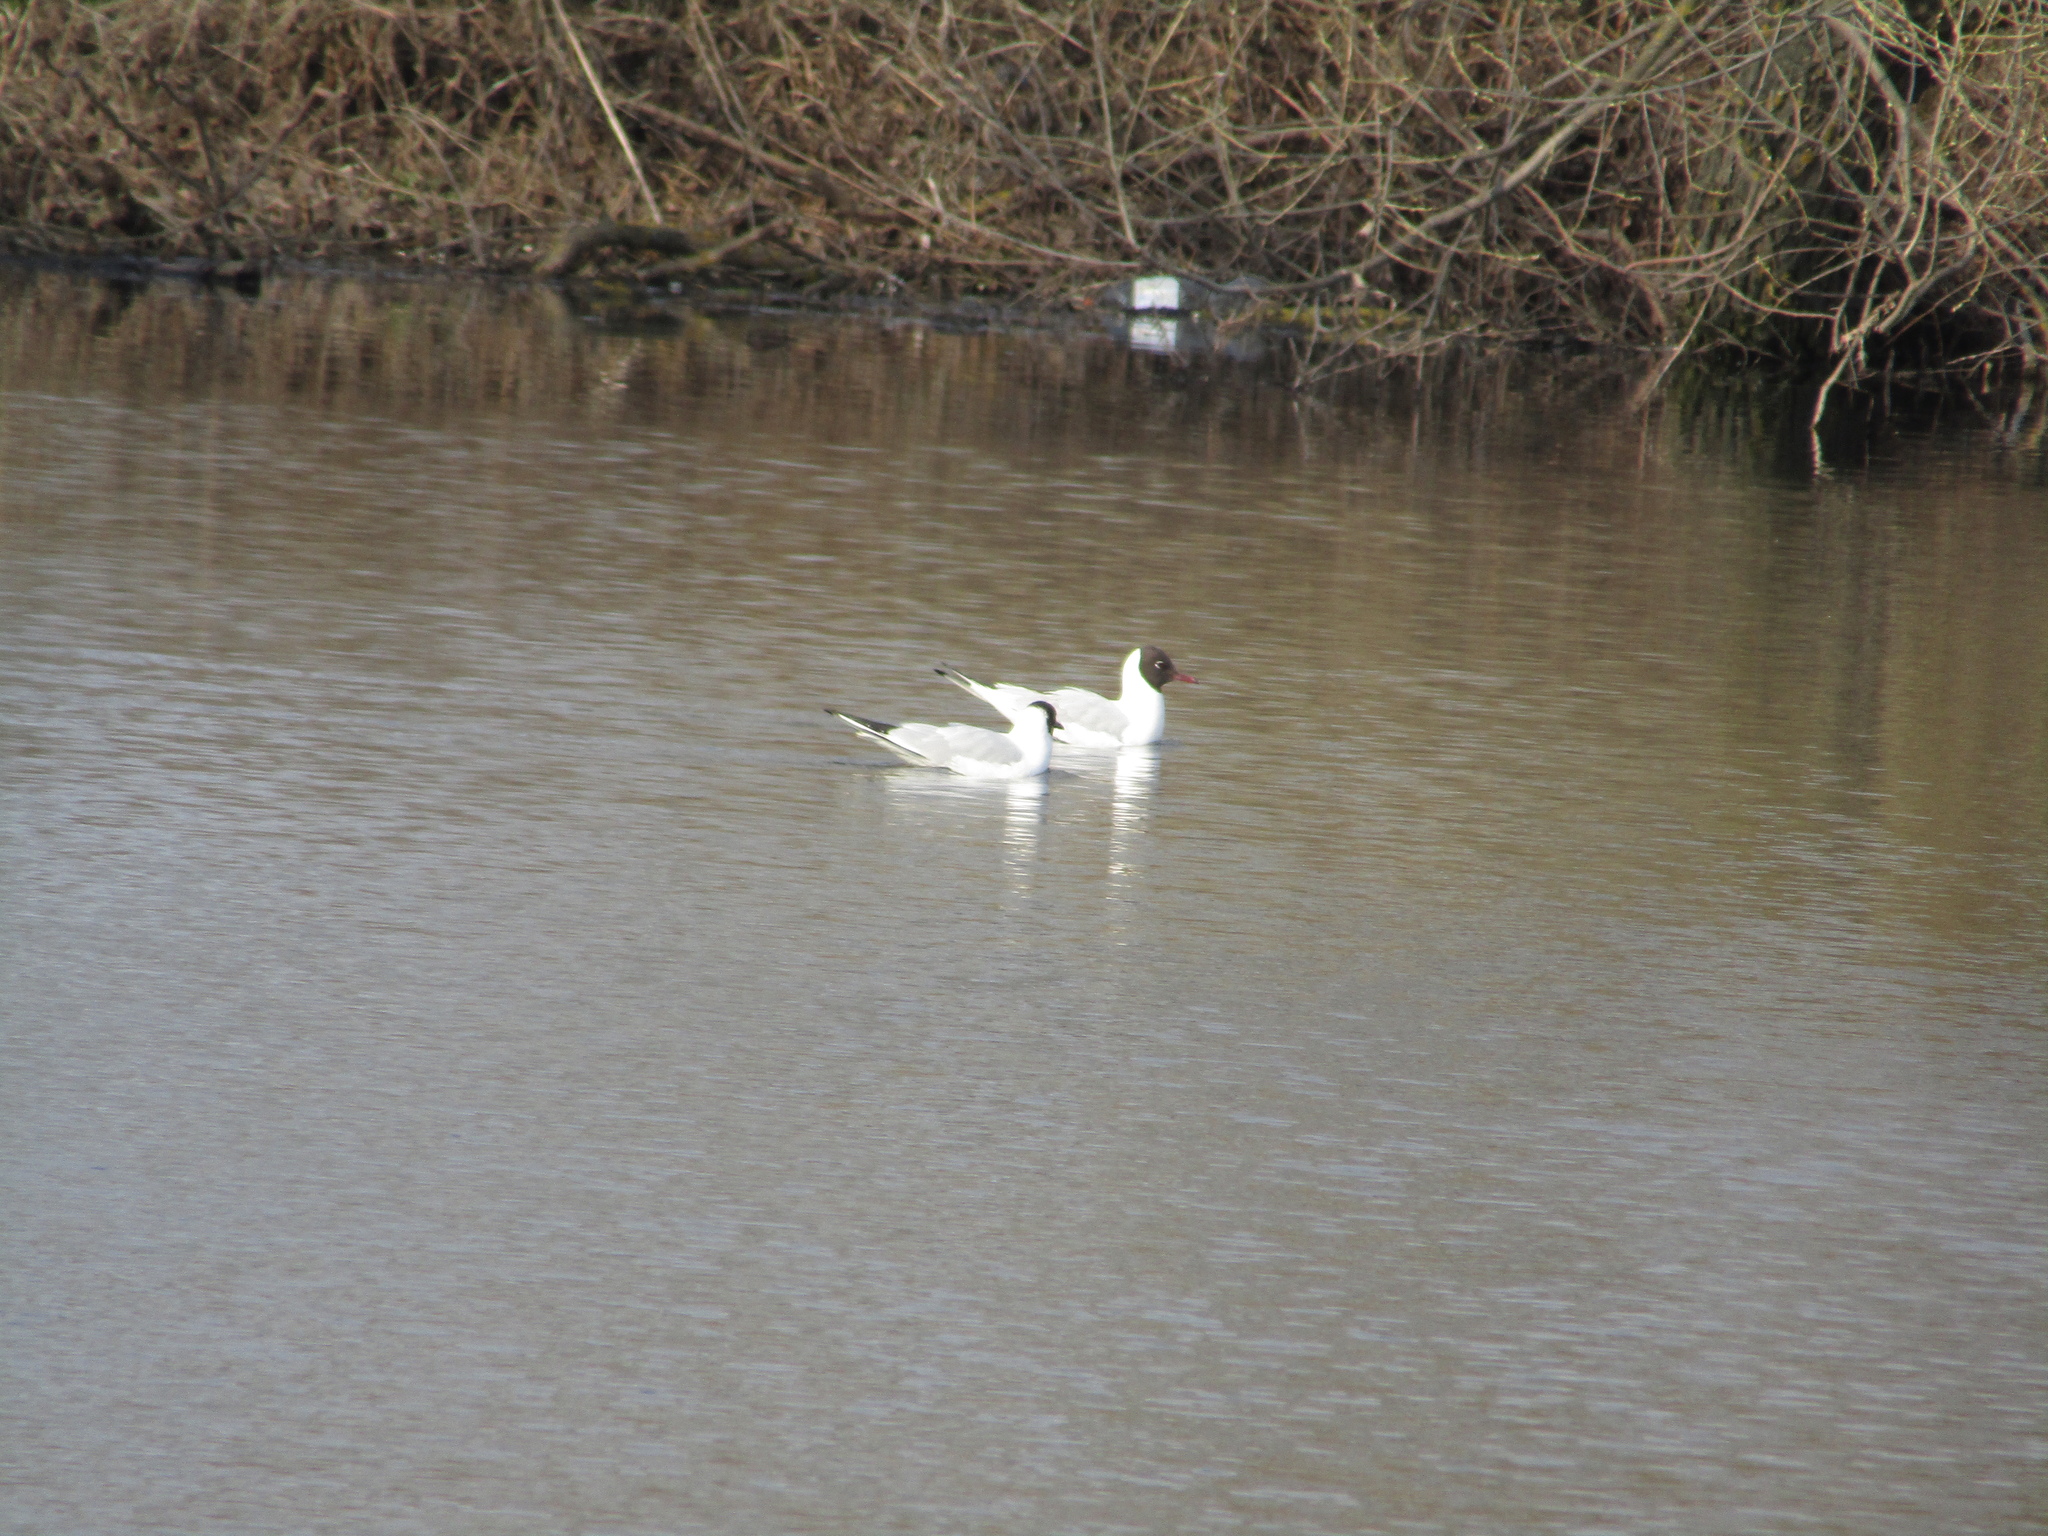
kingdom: Animalia
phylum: Chordata
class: Aves
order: Charadriiformes
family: Laridae
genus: Chroicocephalus
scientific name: Chroicocephalus ridibundus
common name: Black-headed gull
